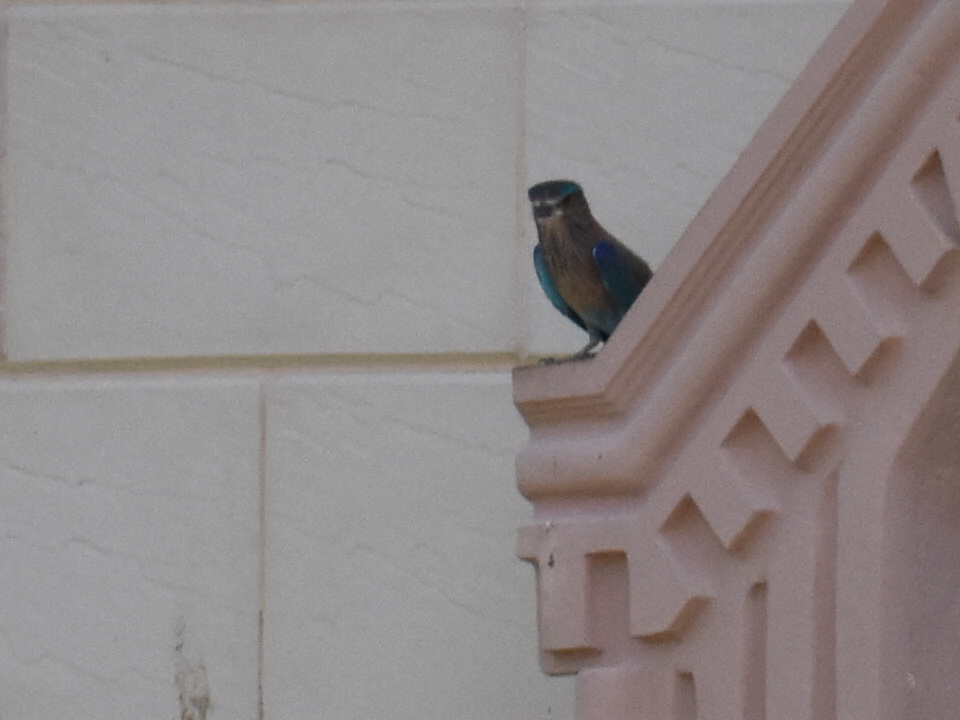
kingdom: Animalia
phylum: Chordata
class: Aves
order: Coraciiformes
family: Coraciidae
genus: Coracias
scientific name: Coracias benghalensis
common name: Indian roller
